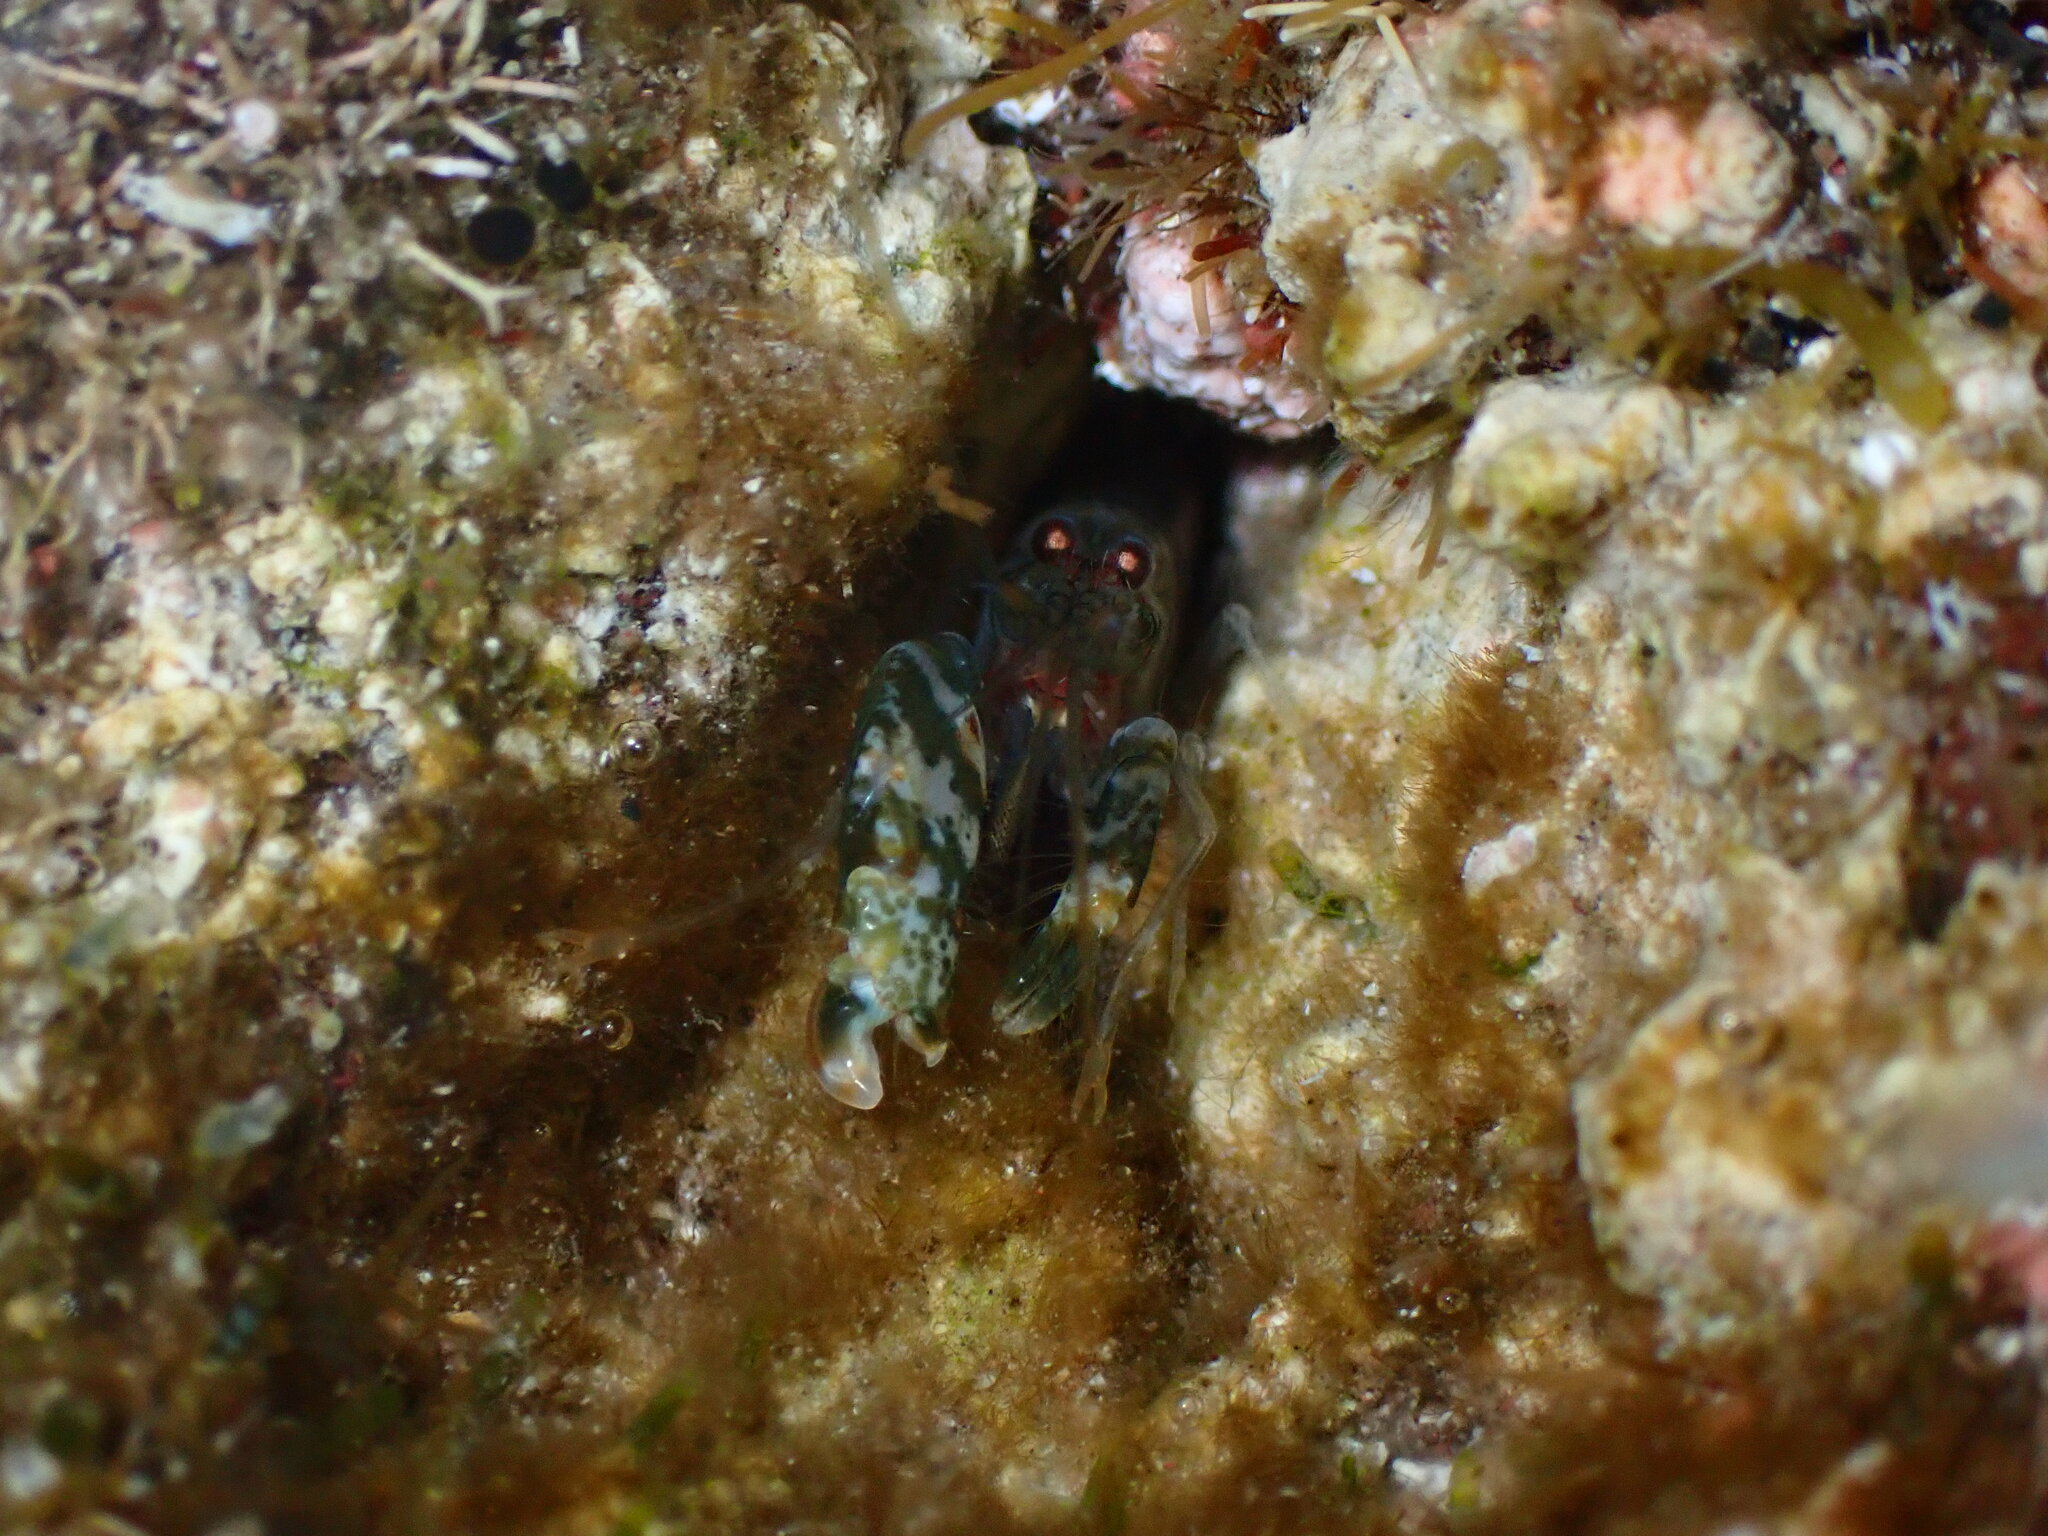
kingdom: Animalia
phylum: Arthropoda
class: Malacostraca
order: Decapoda
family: Alpheidae
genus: Alpheus
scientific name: Alpheus dentipes
